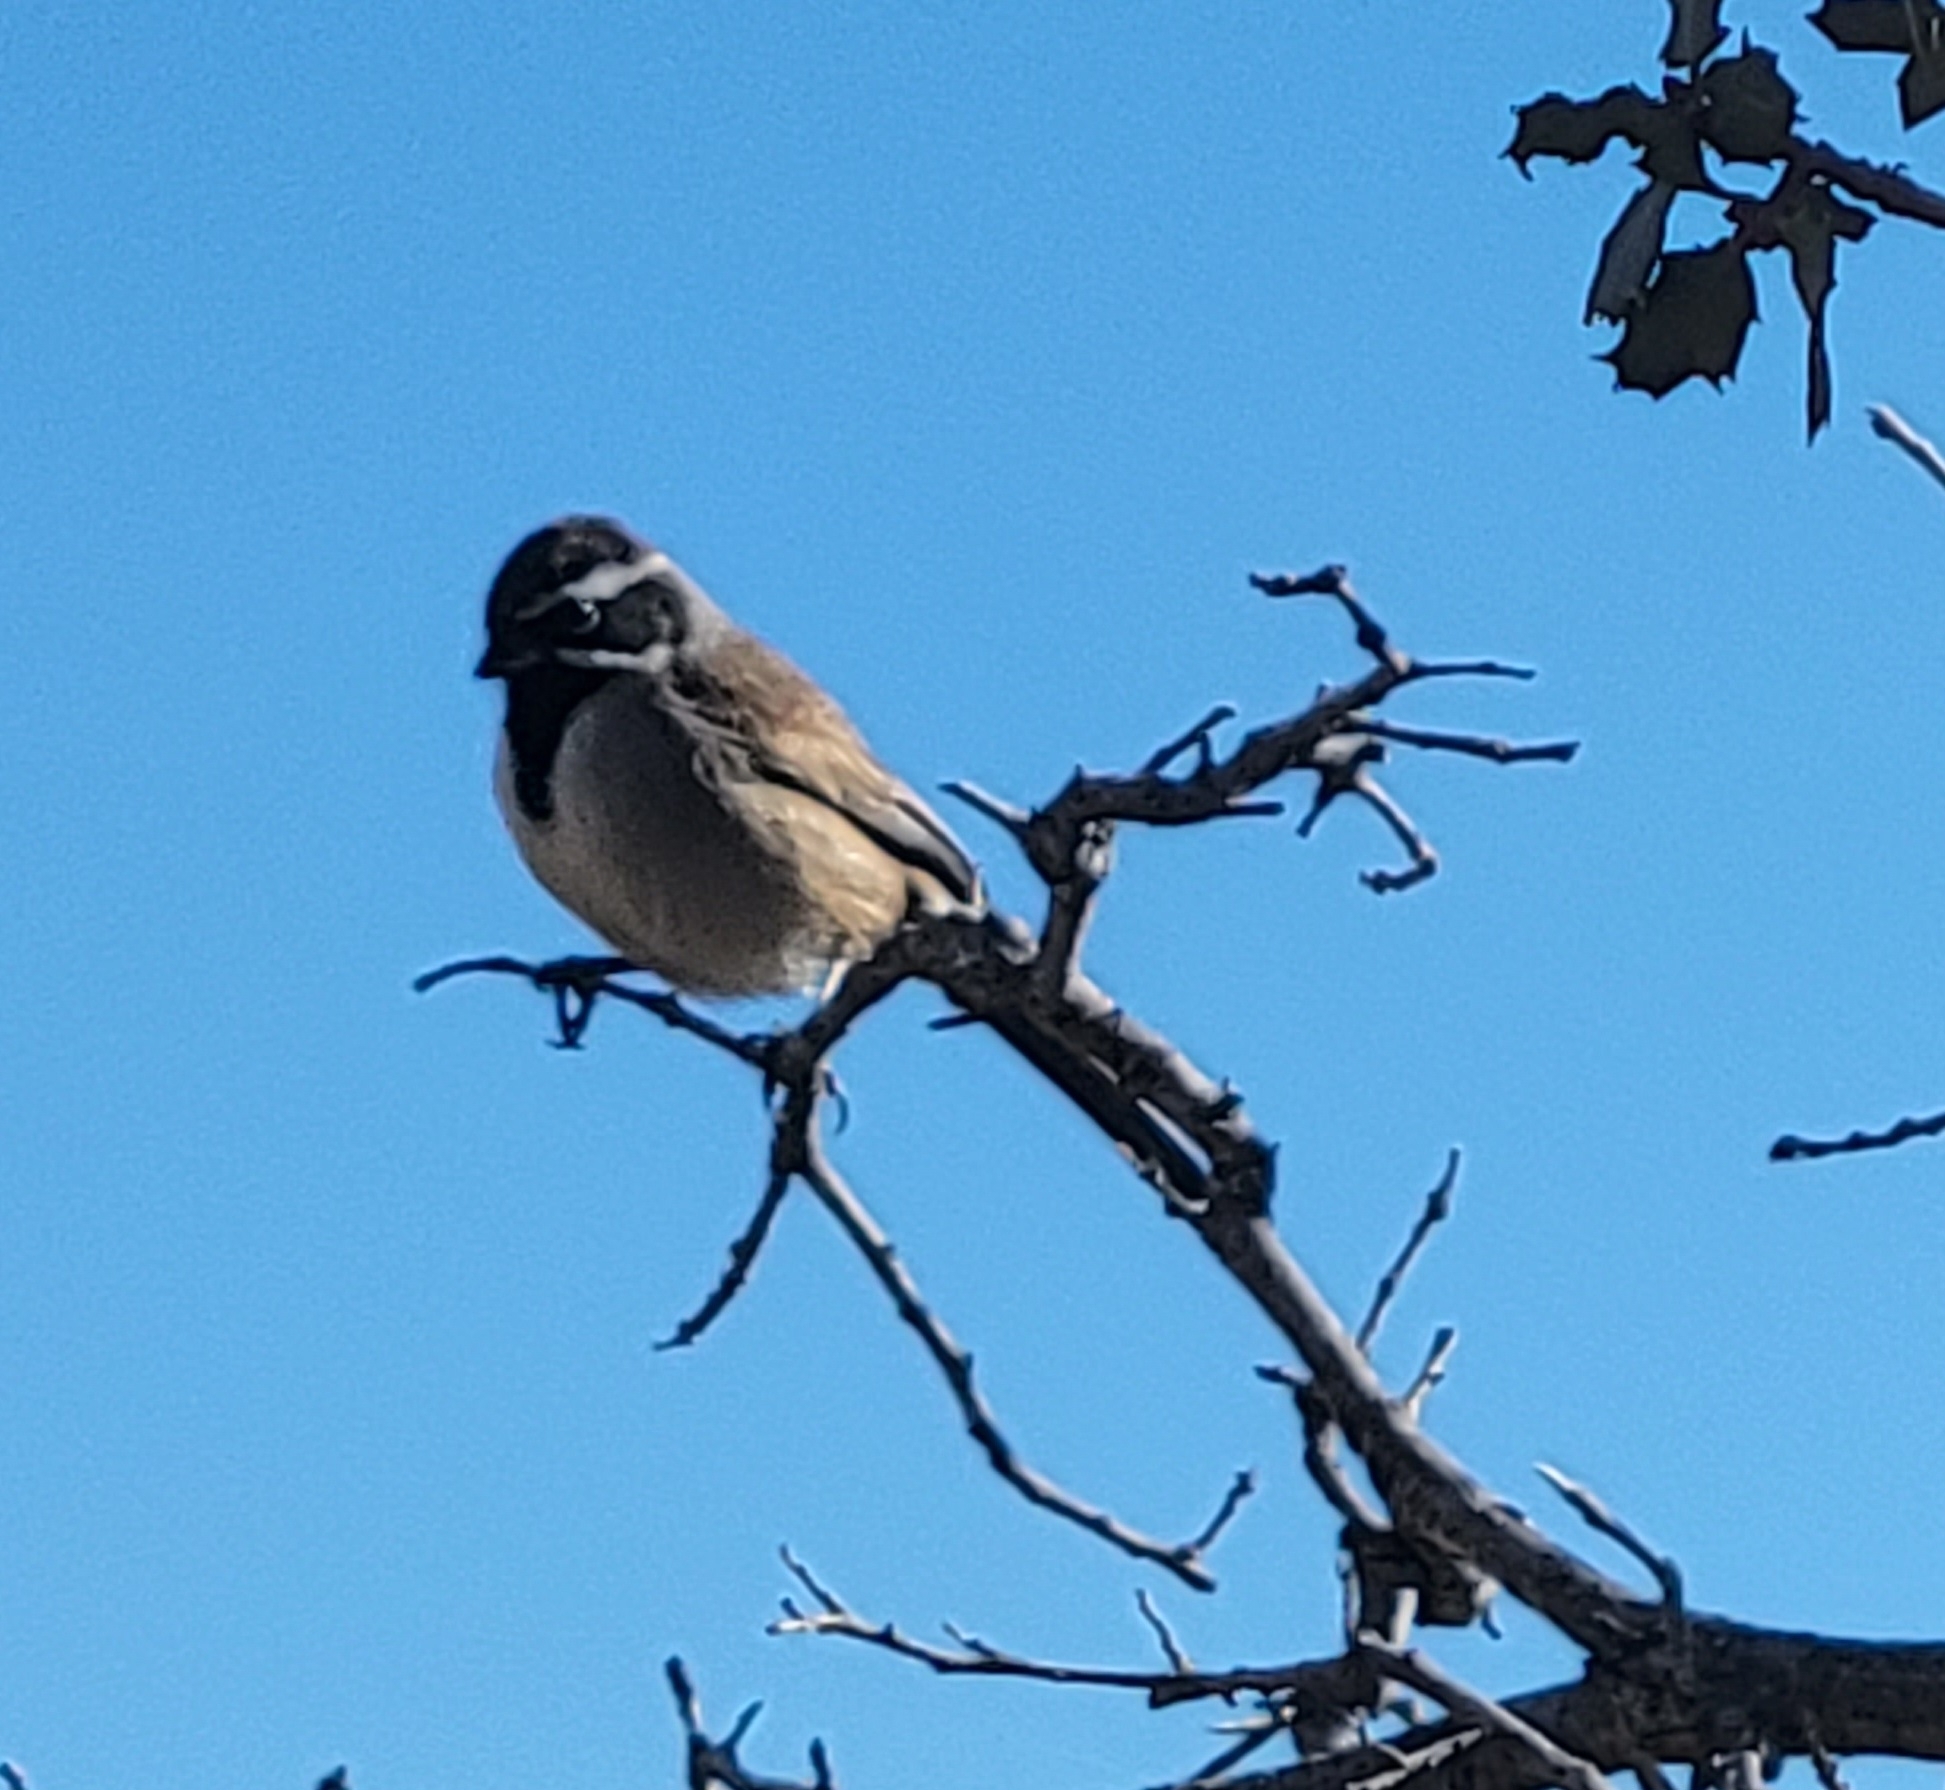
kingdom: Animalia
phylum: Chordata
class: Aves
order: Passeriformes
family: Passerellidae
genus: Amphispiza
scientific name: Amphispiza bilineata
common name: Black-throated sparrow
